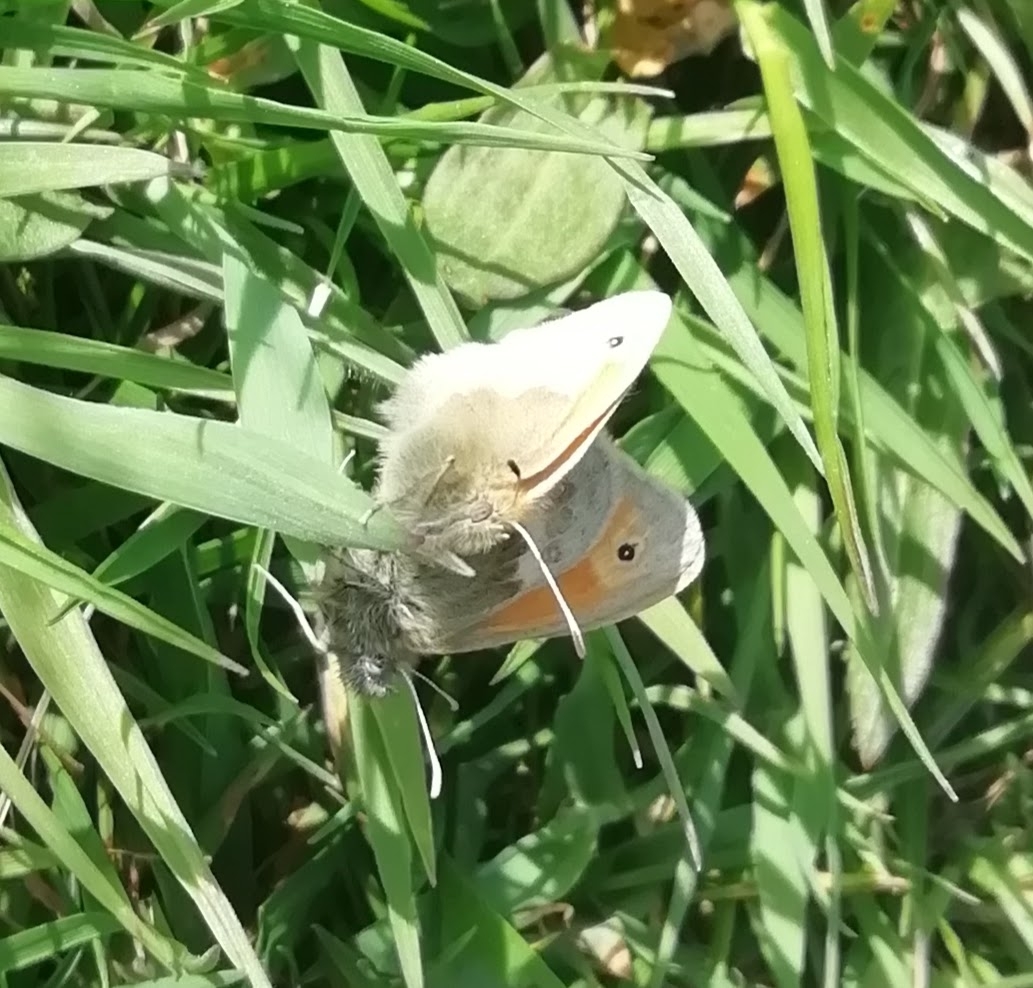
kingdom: Animalia
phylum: Arthropoda
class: Insecta
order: Lepidoptera
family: Nymphalidae
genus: Coenonympha
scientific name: Coenonympha pamphilus
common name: Small heath
